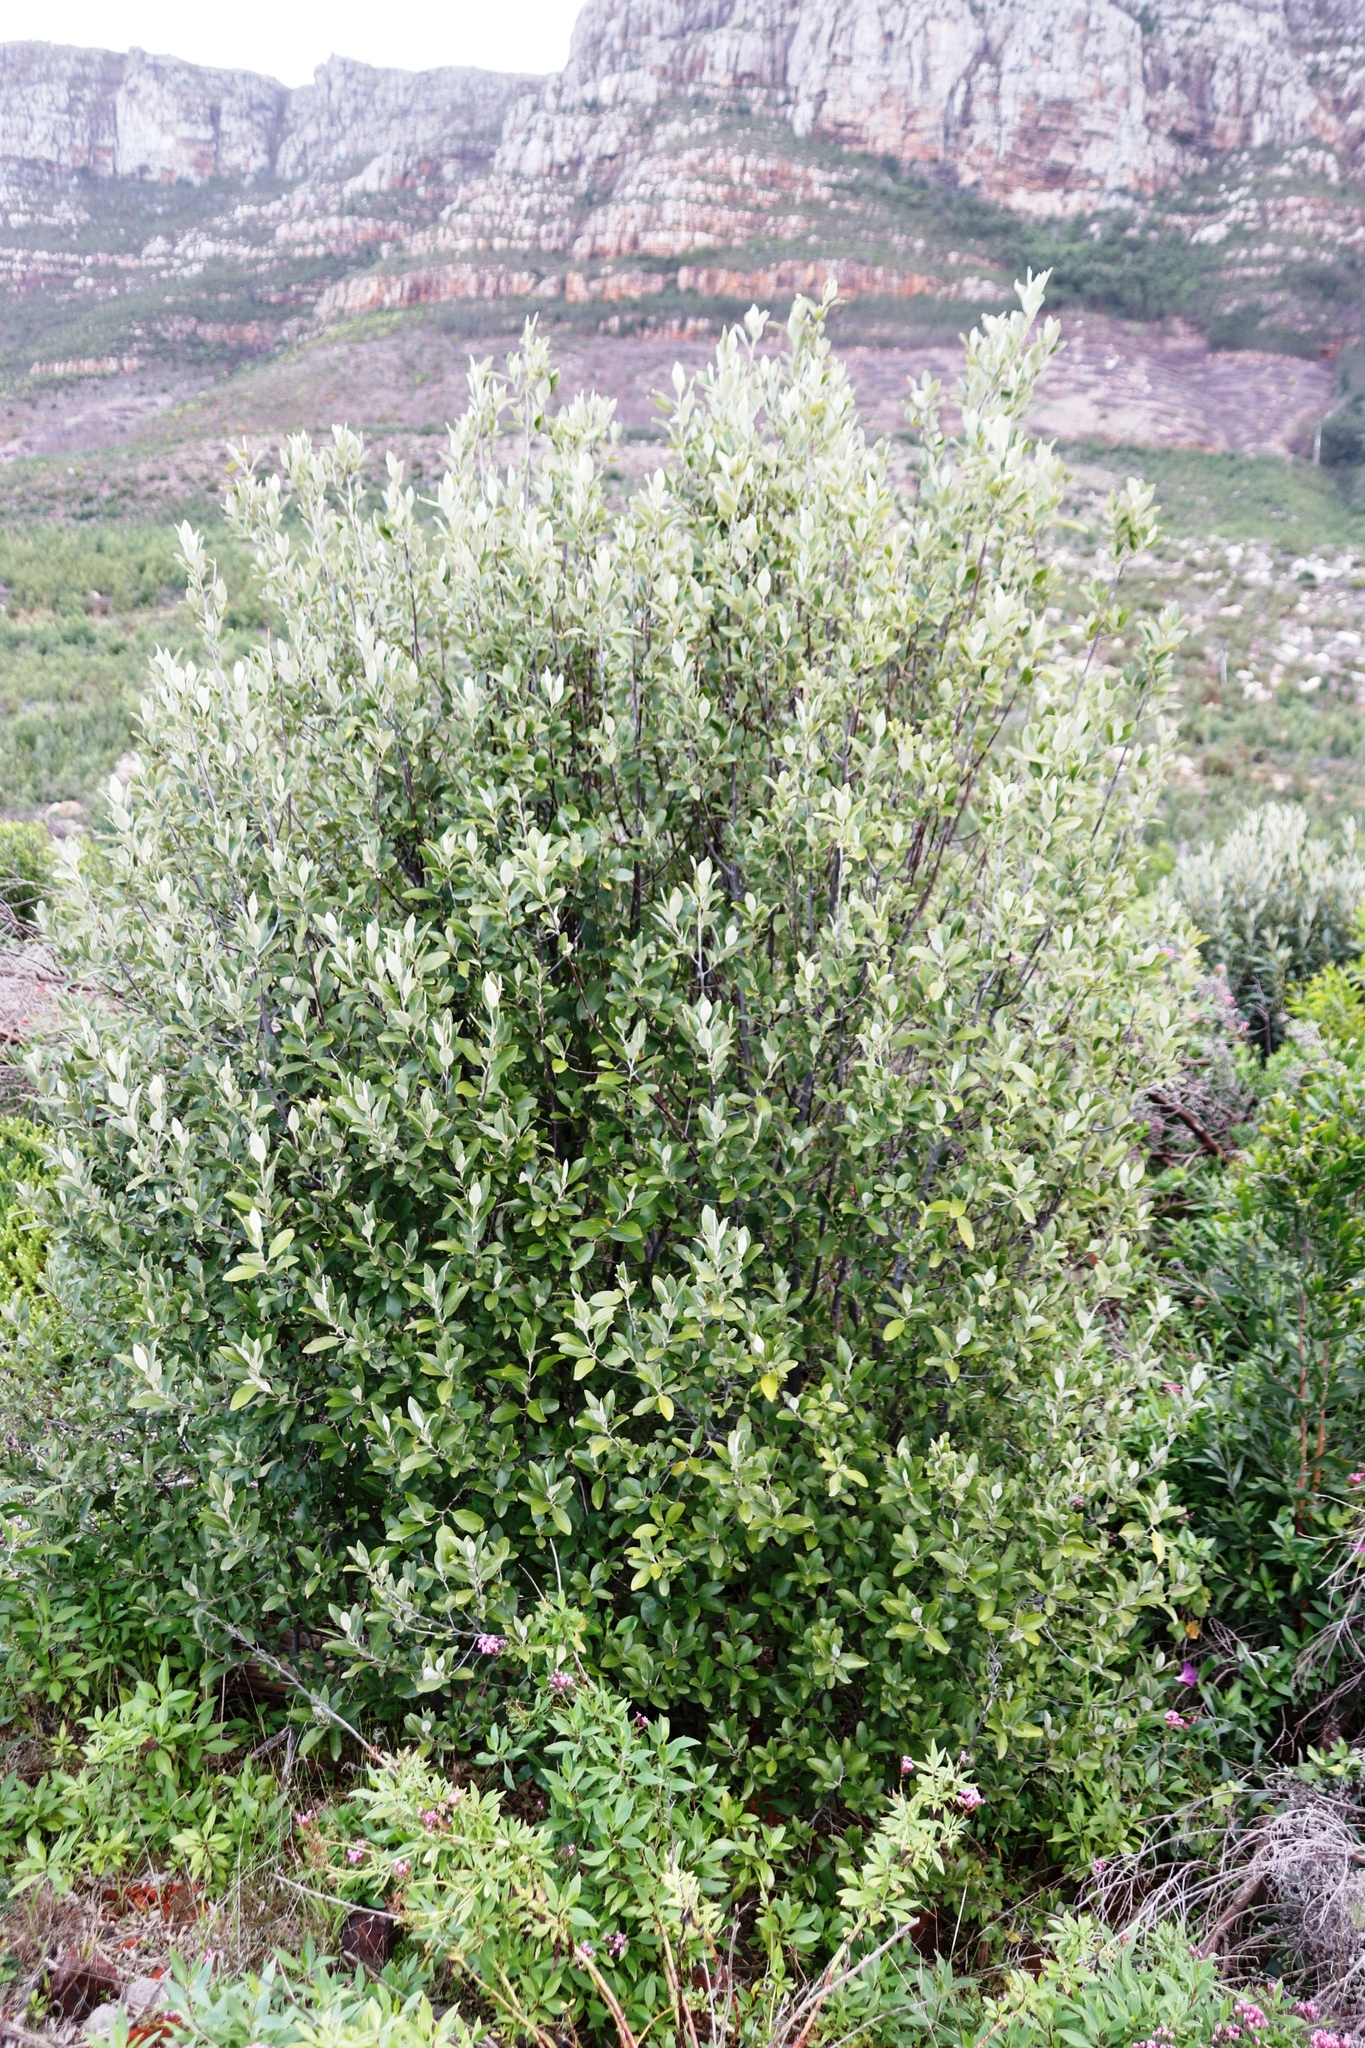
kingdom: Plantae
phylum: Tracheophyta
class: Magnoliopsida
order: Malpighiales
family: Achariaceae
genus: Kiggelaria
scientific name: Kiggelaria africana
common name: Wild peach
